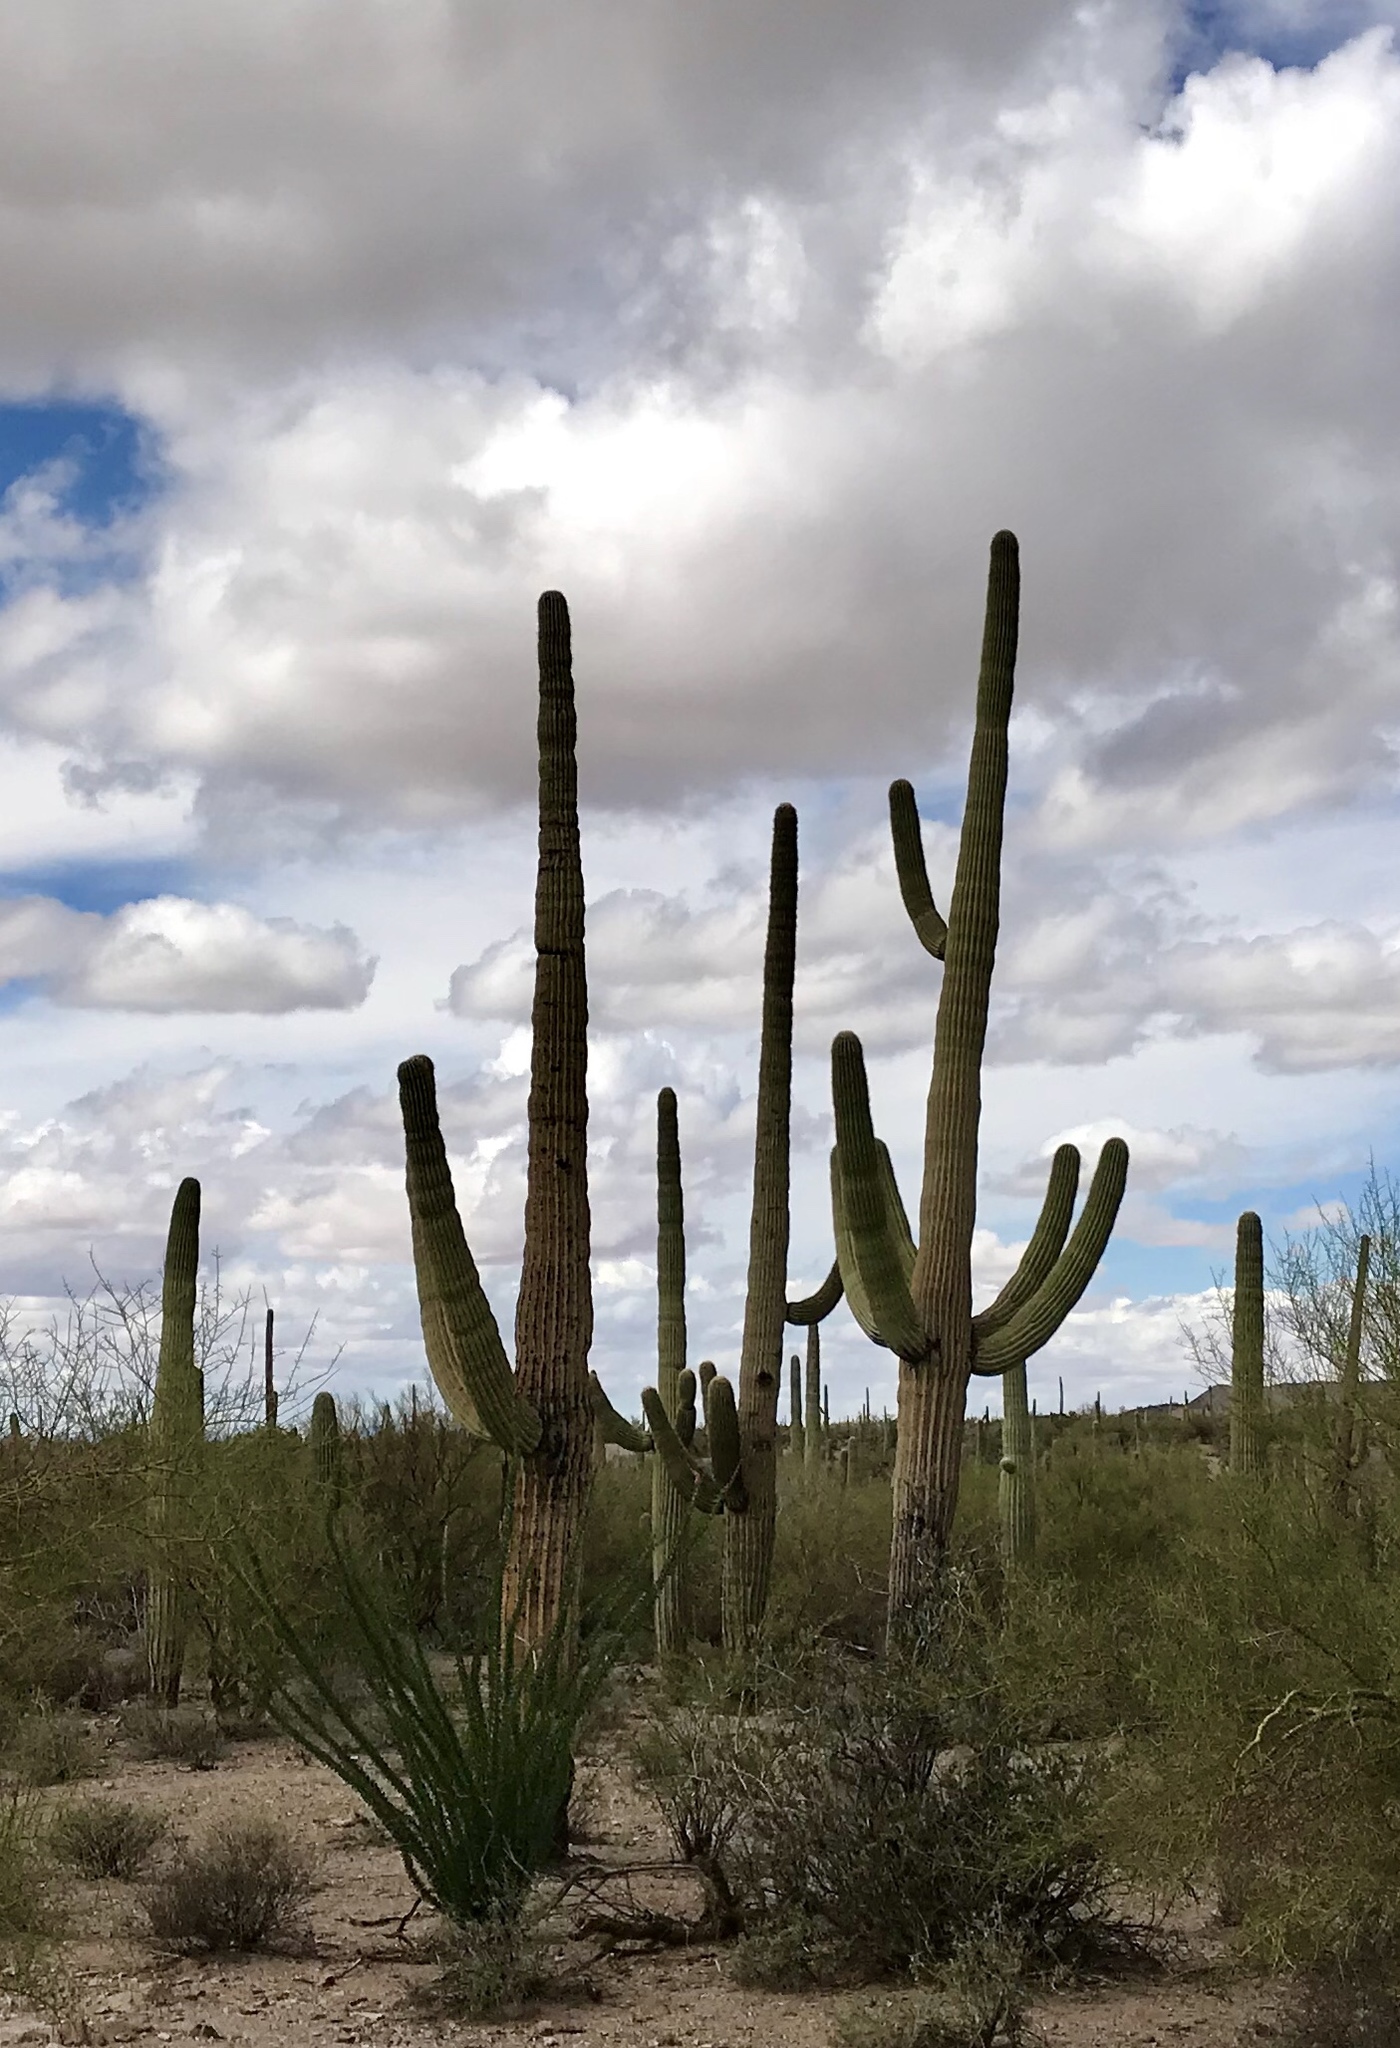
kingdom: Plantae
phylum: Tracheophyta
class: Magnoliopsida
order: Caryophyllales
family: Cactaceae
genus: Carnegiea
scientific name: Carnegiea gigantea
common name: Saguaro
